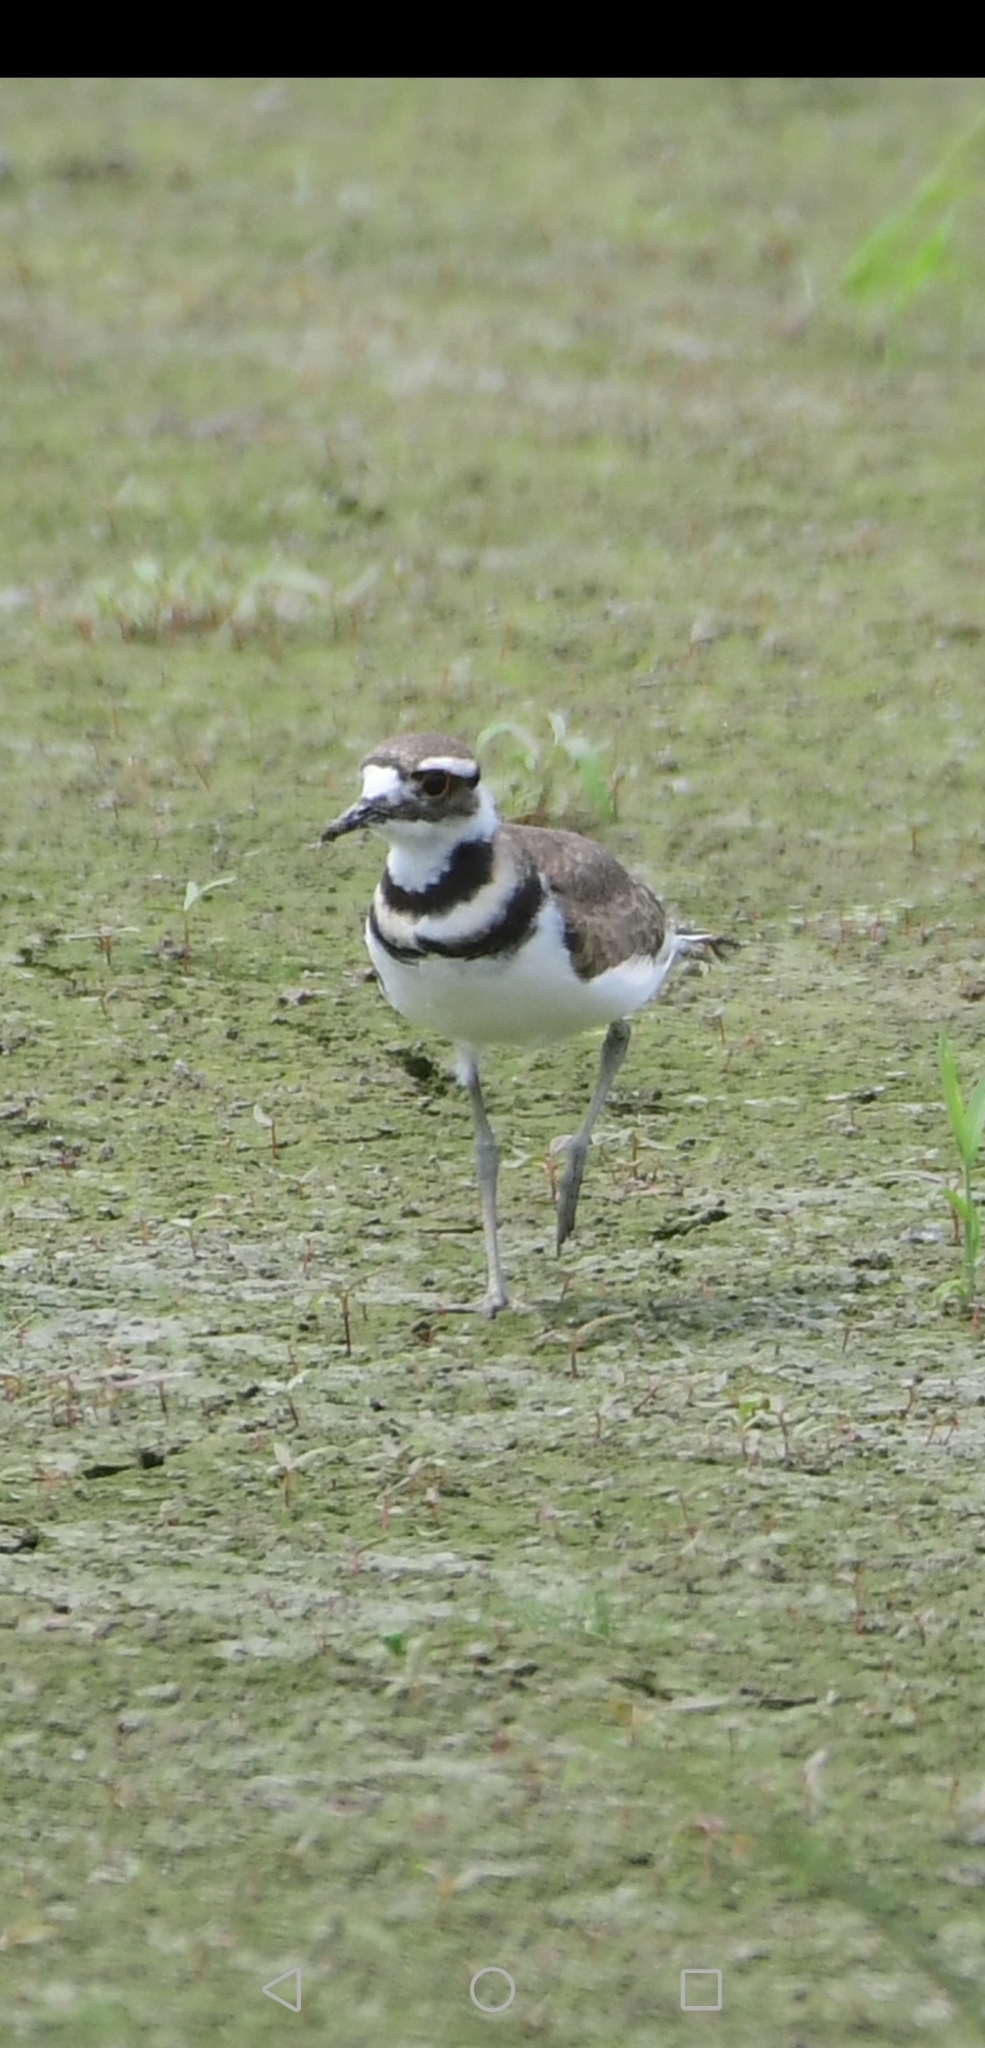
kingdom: Animalia
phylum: Chordata
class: Aves
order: Charadriiformes
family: Charadriidae
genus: Charadrius
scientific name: Charadrius vociferus
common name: Killdeer
